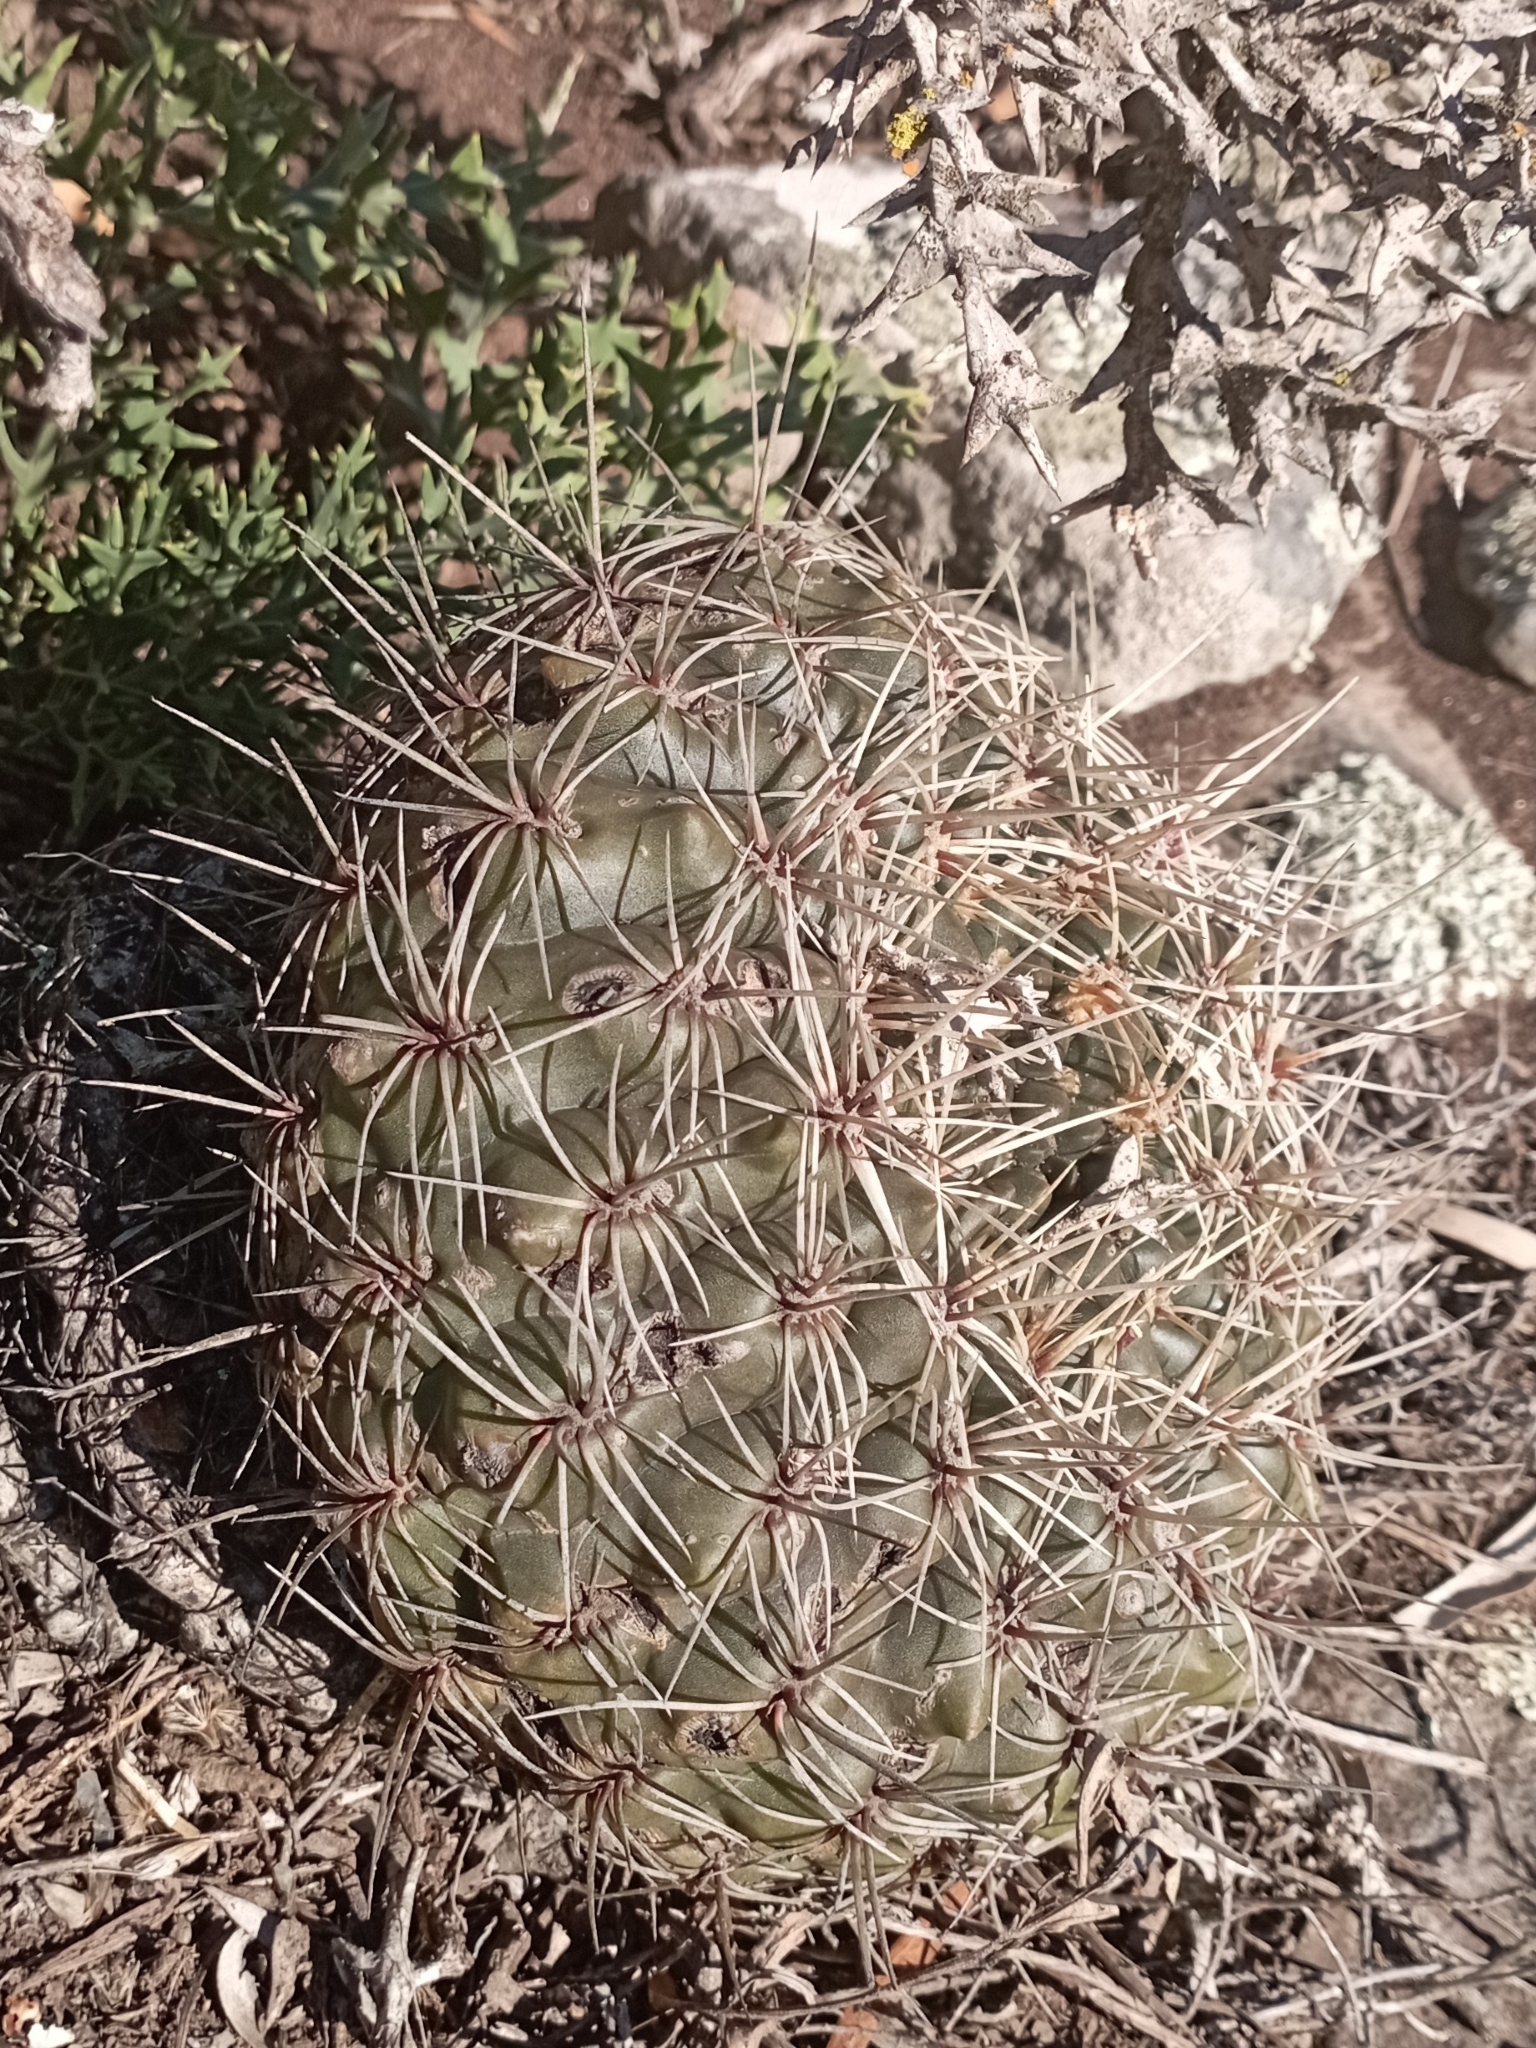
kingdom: Plantae
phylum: Tracheophyta
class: Magnoliopsida
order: Caryophyllales
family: Cactaceae
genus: Gymnocalycium
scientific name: Gymnocalycium reductum
